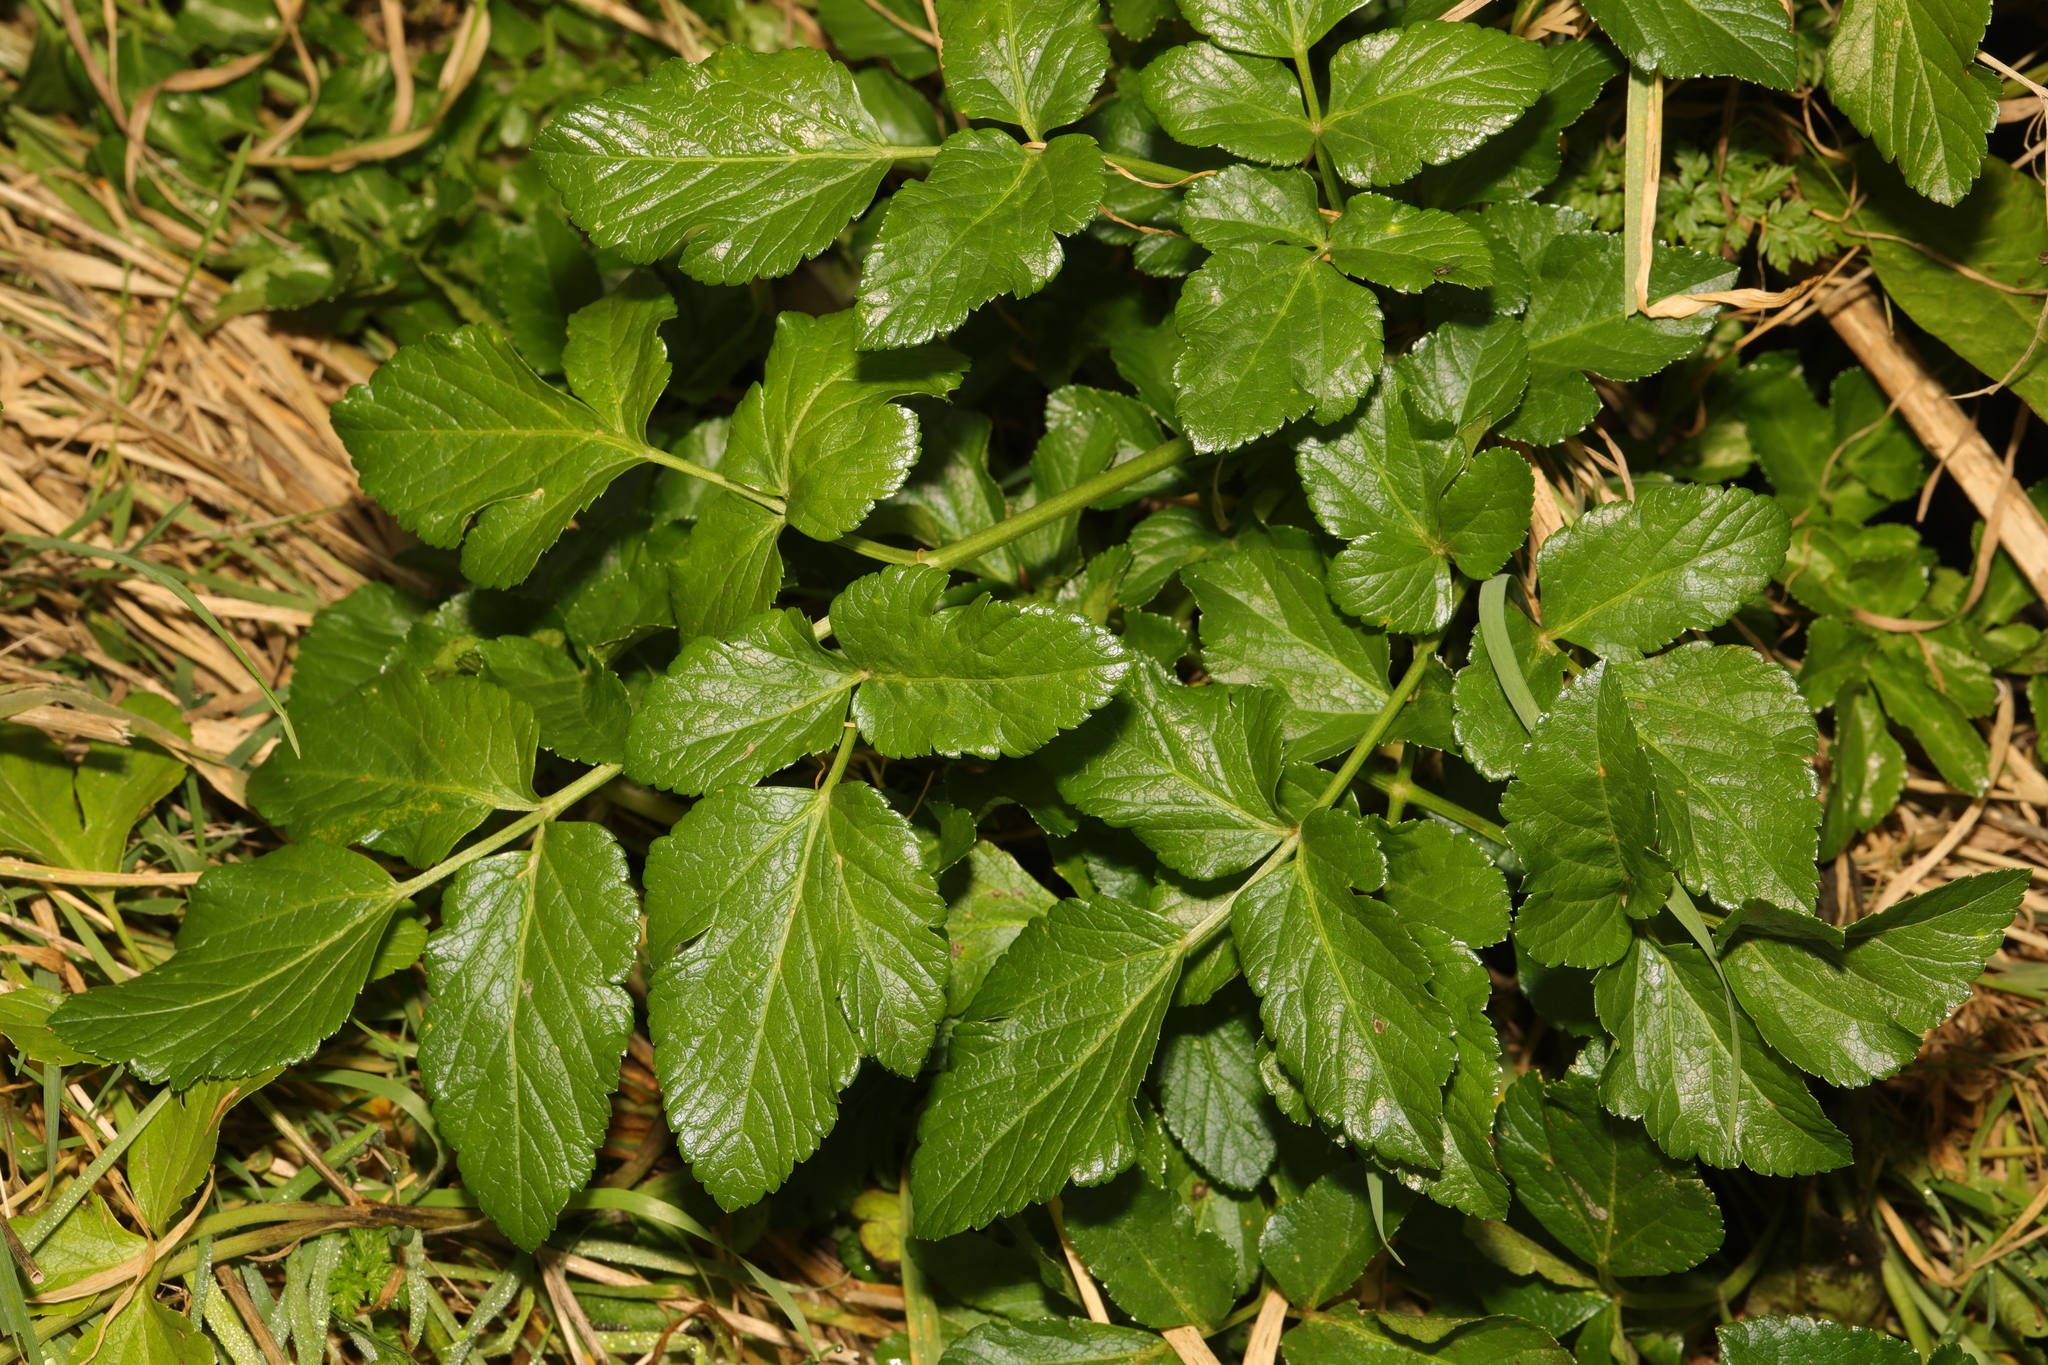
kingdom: Plantae
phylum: Tracheophyta
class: Magnoliopsida
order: Apiales
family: Apiaceae
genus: Smyrnium
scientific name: Smyrnium olusatrum
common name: Alexanders
